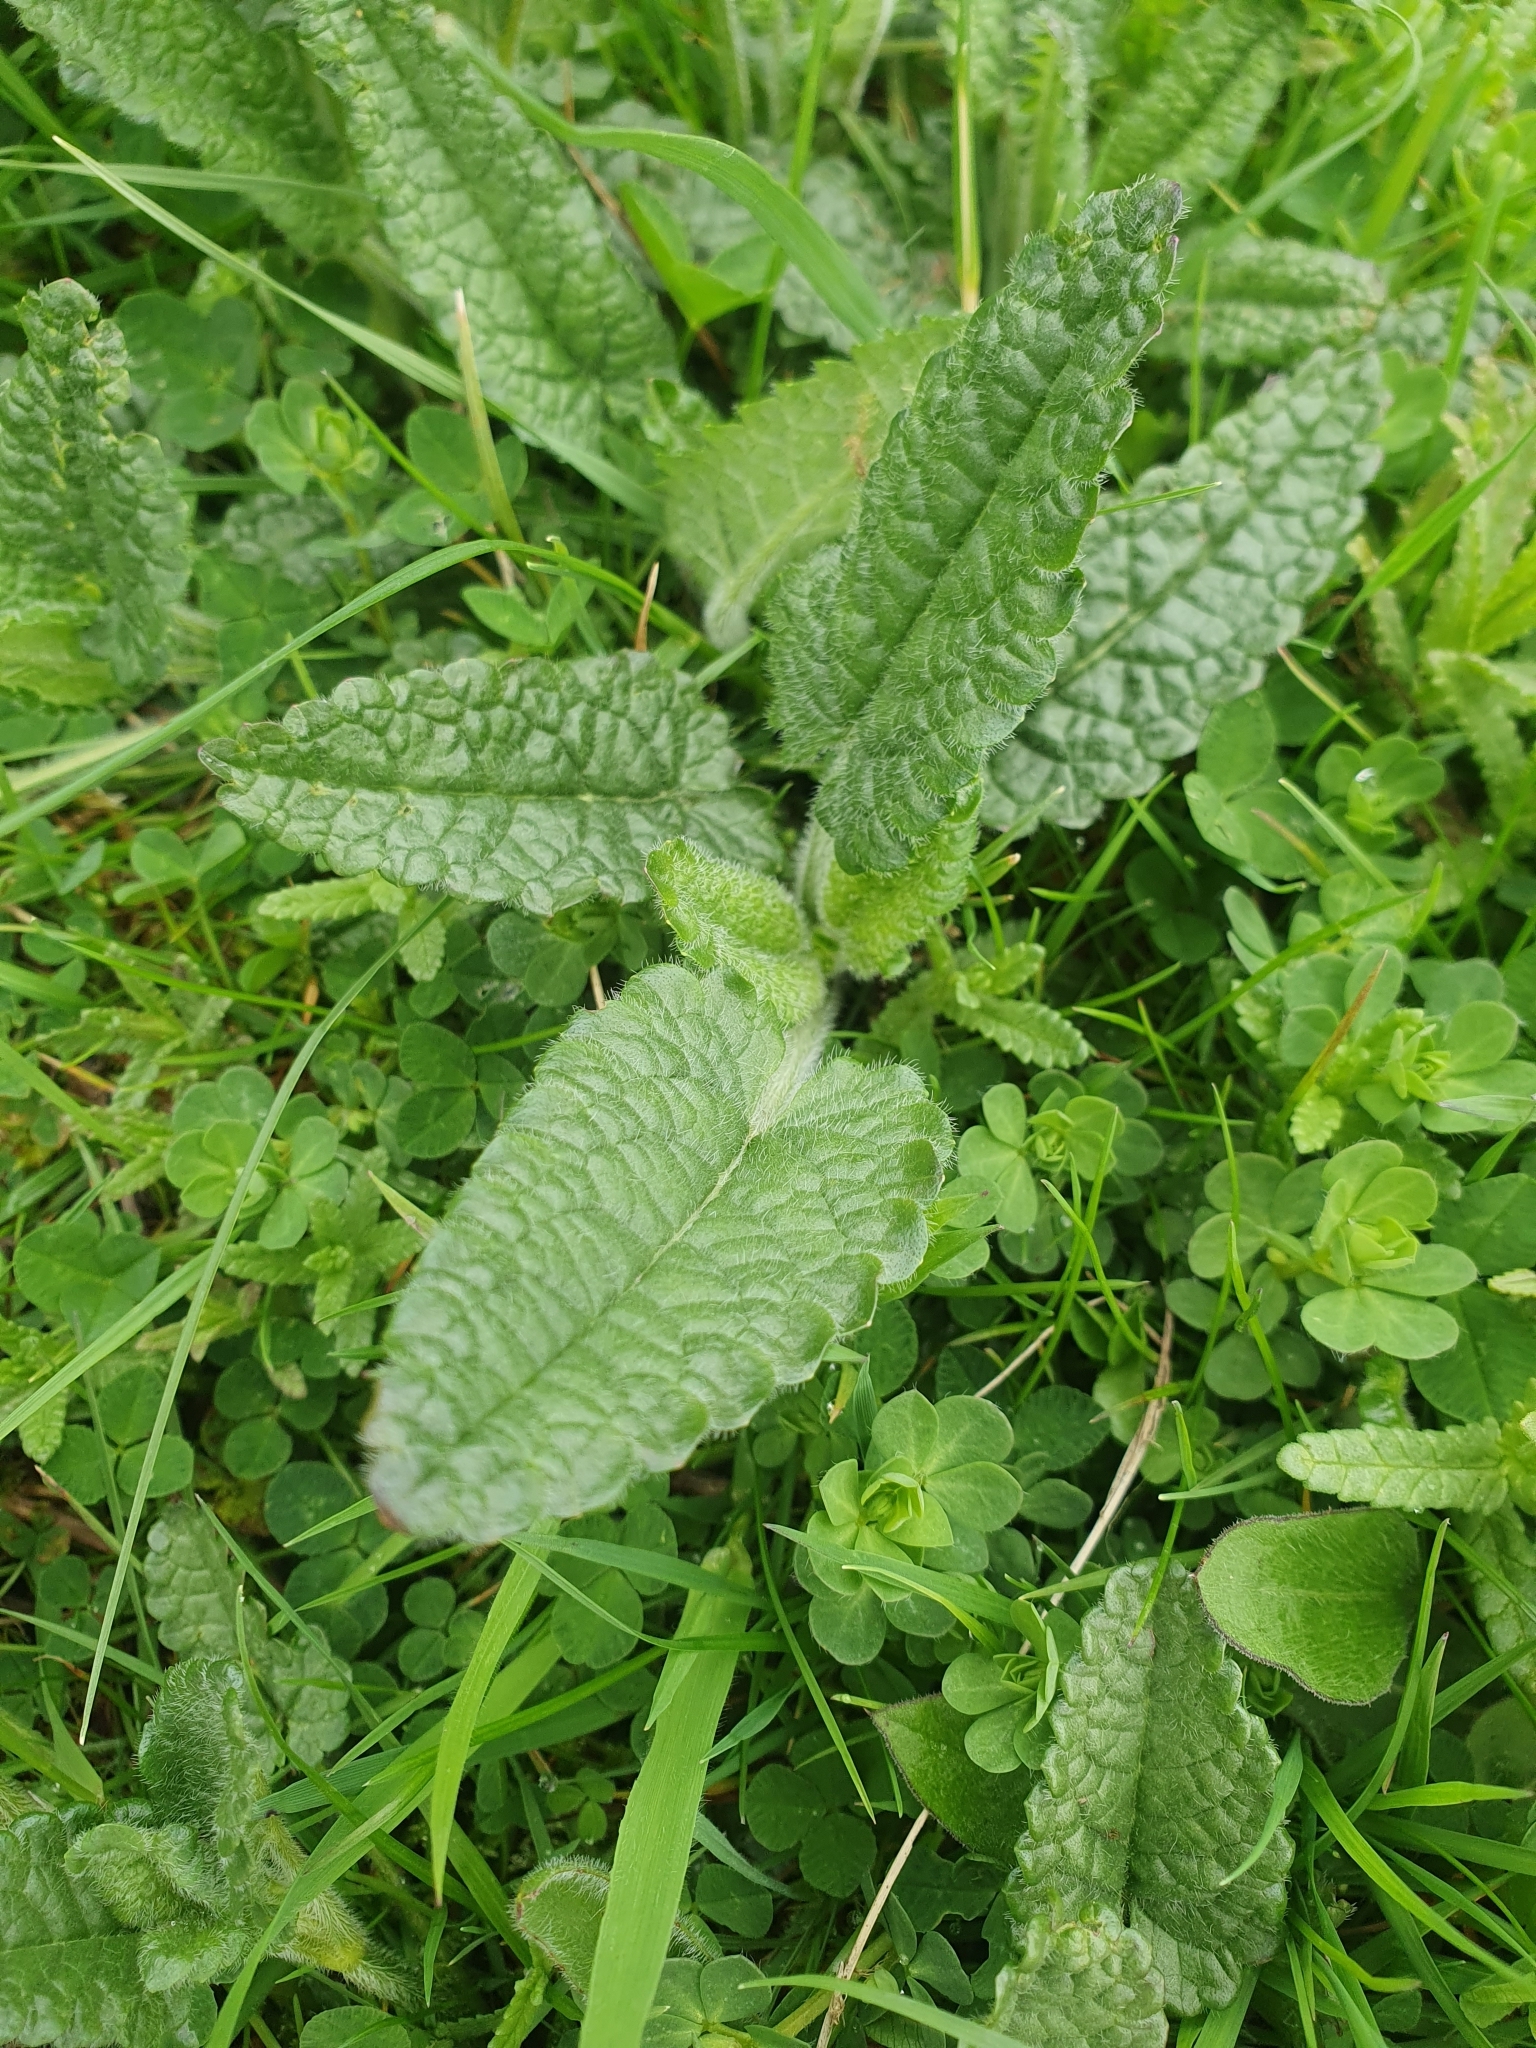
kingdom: Plantae
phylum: Tracheophyta
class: Magnoliopsida
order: Lamiales
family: Lamiaceae
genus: Betonica
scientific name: Betonica officinalis
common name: Bishop's-wort
